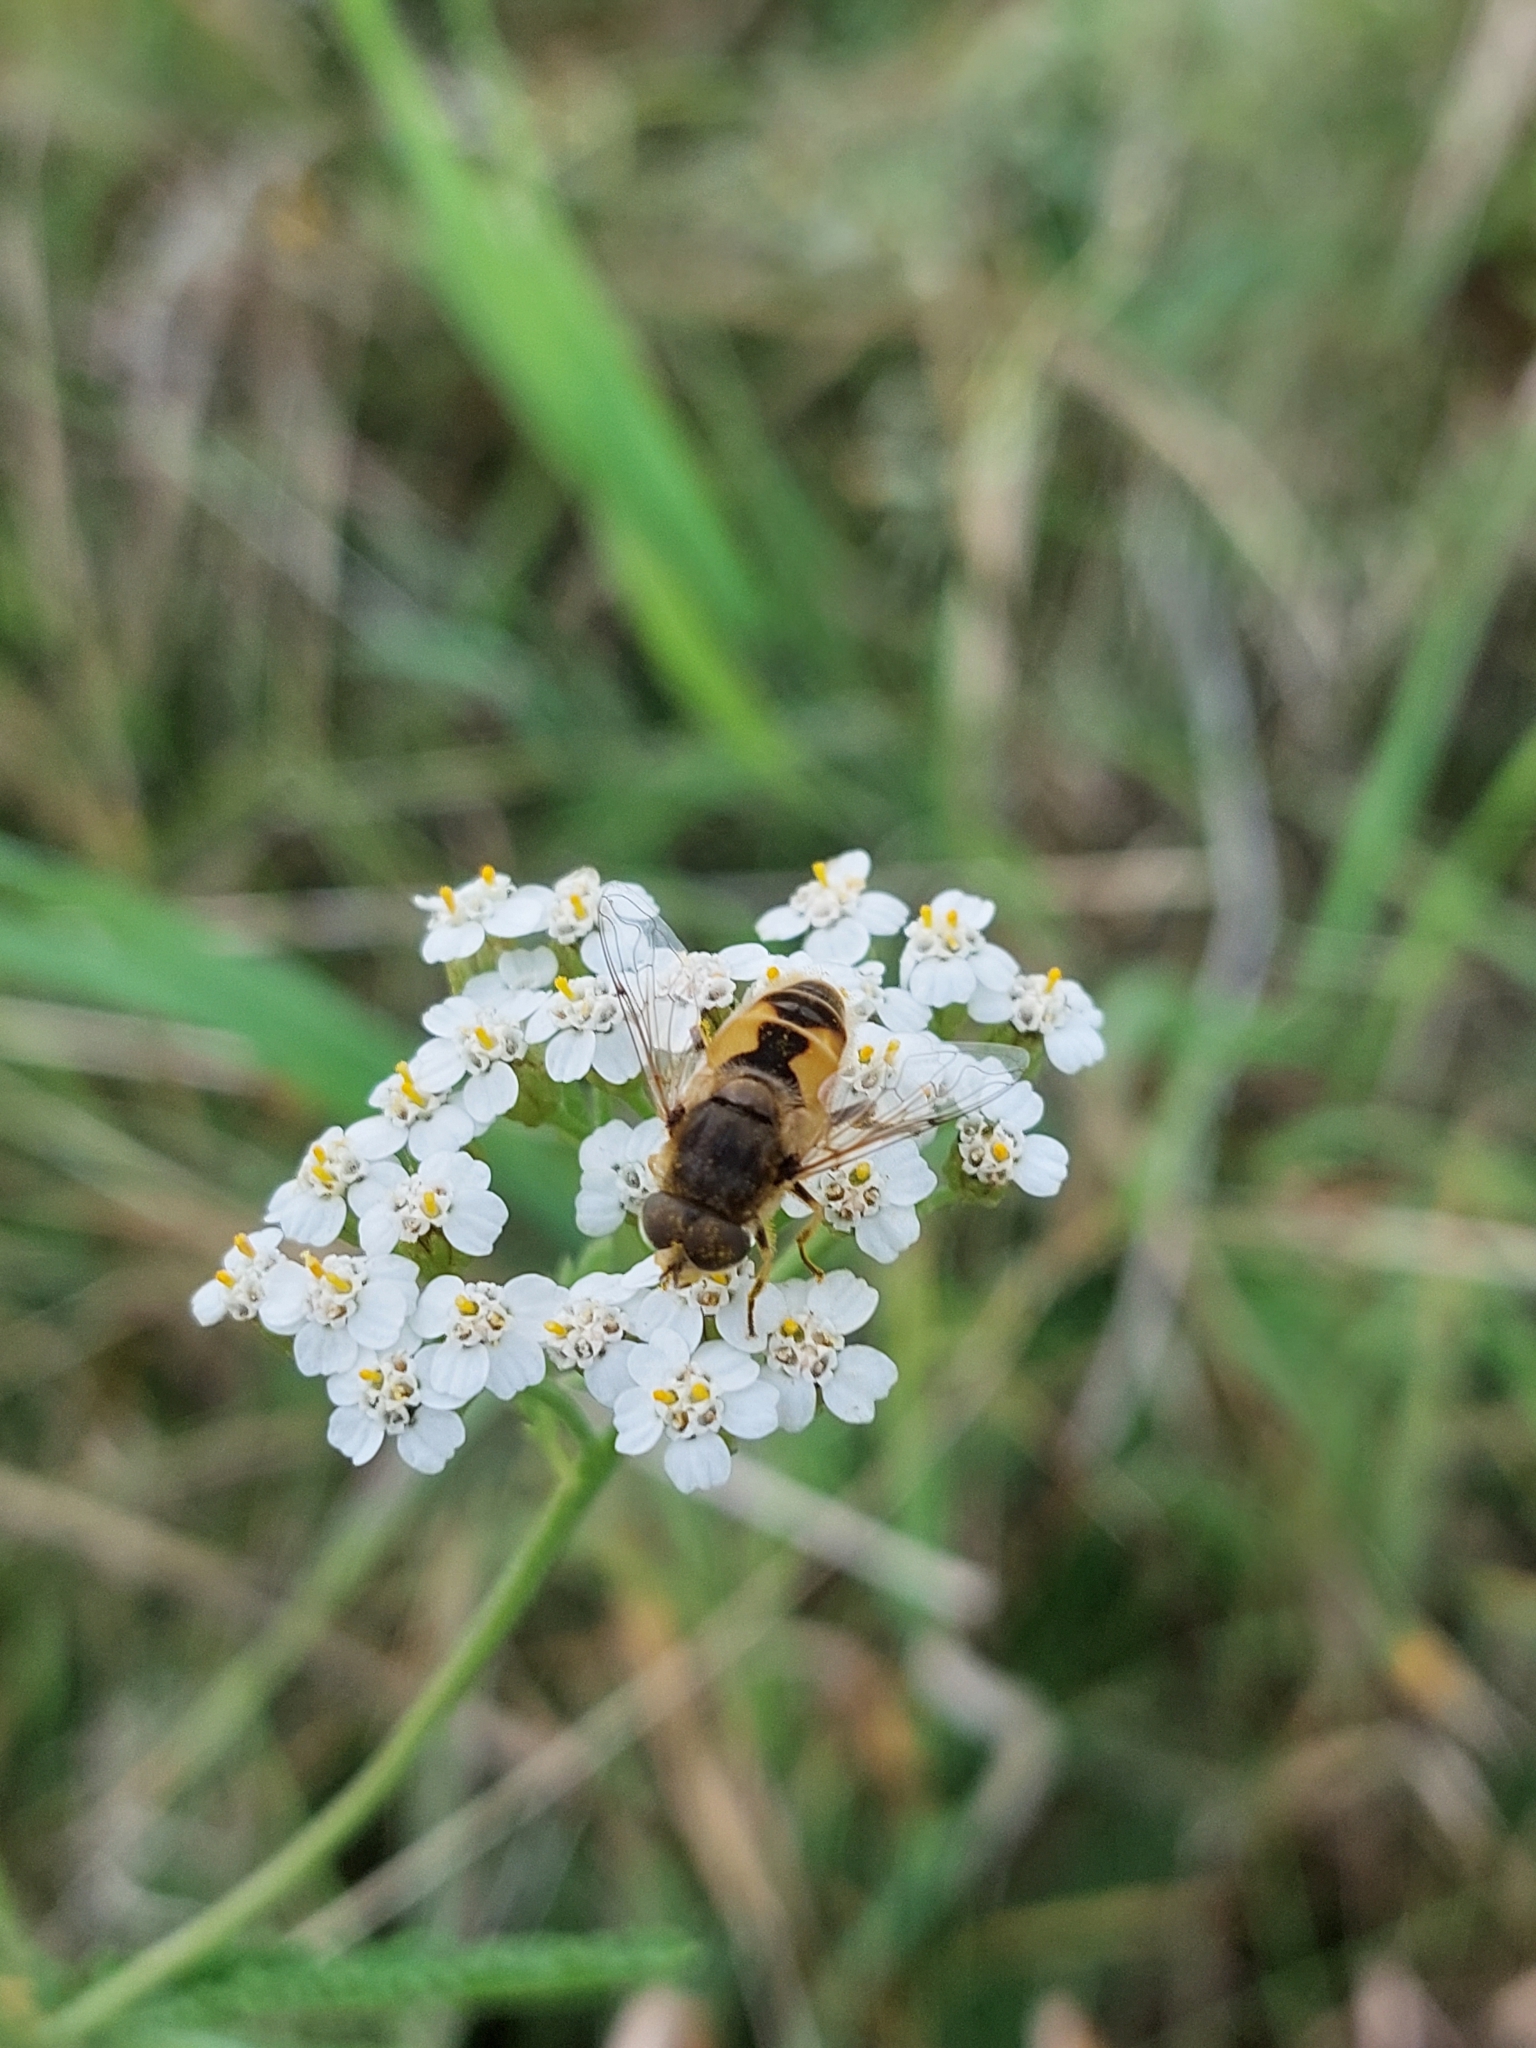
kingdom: Animalia
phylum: Arthropoda
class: Insecta
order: Diptera
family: Syrphidae
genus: Eristalis
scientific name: Eristalis arbustorum
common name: Hover fly
